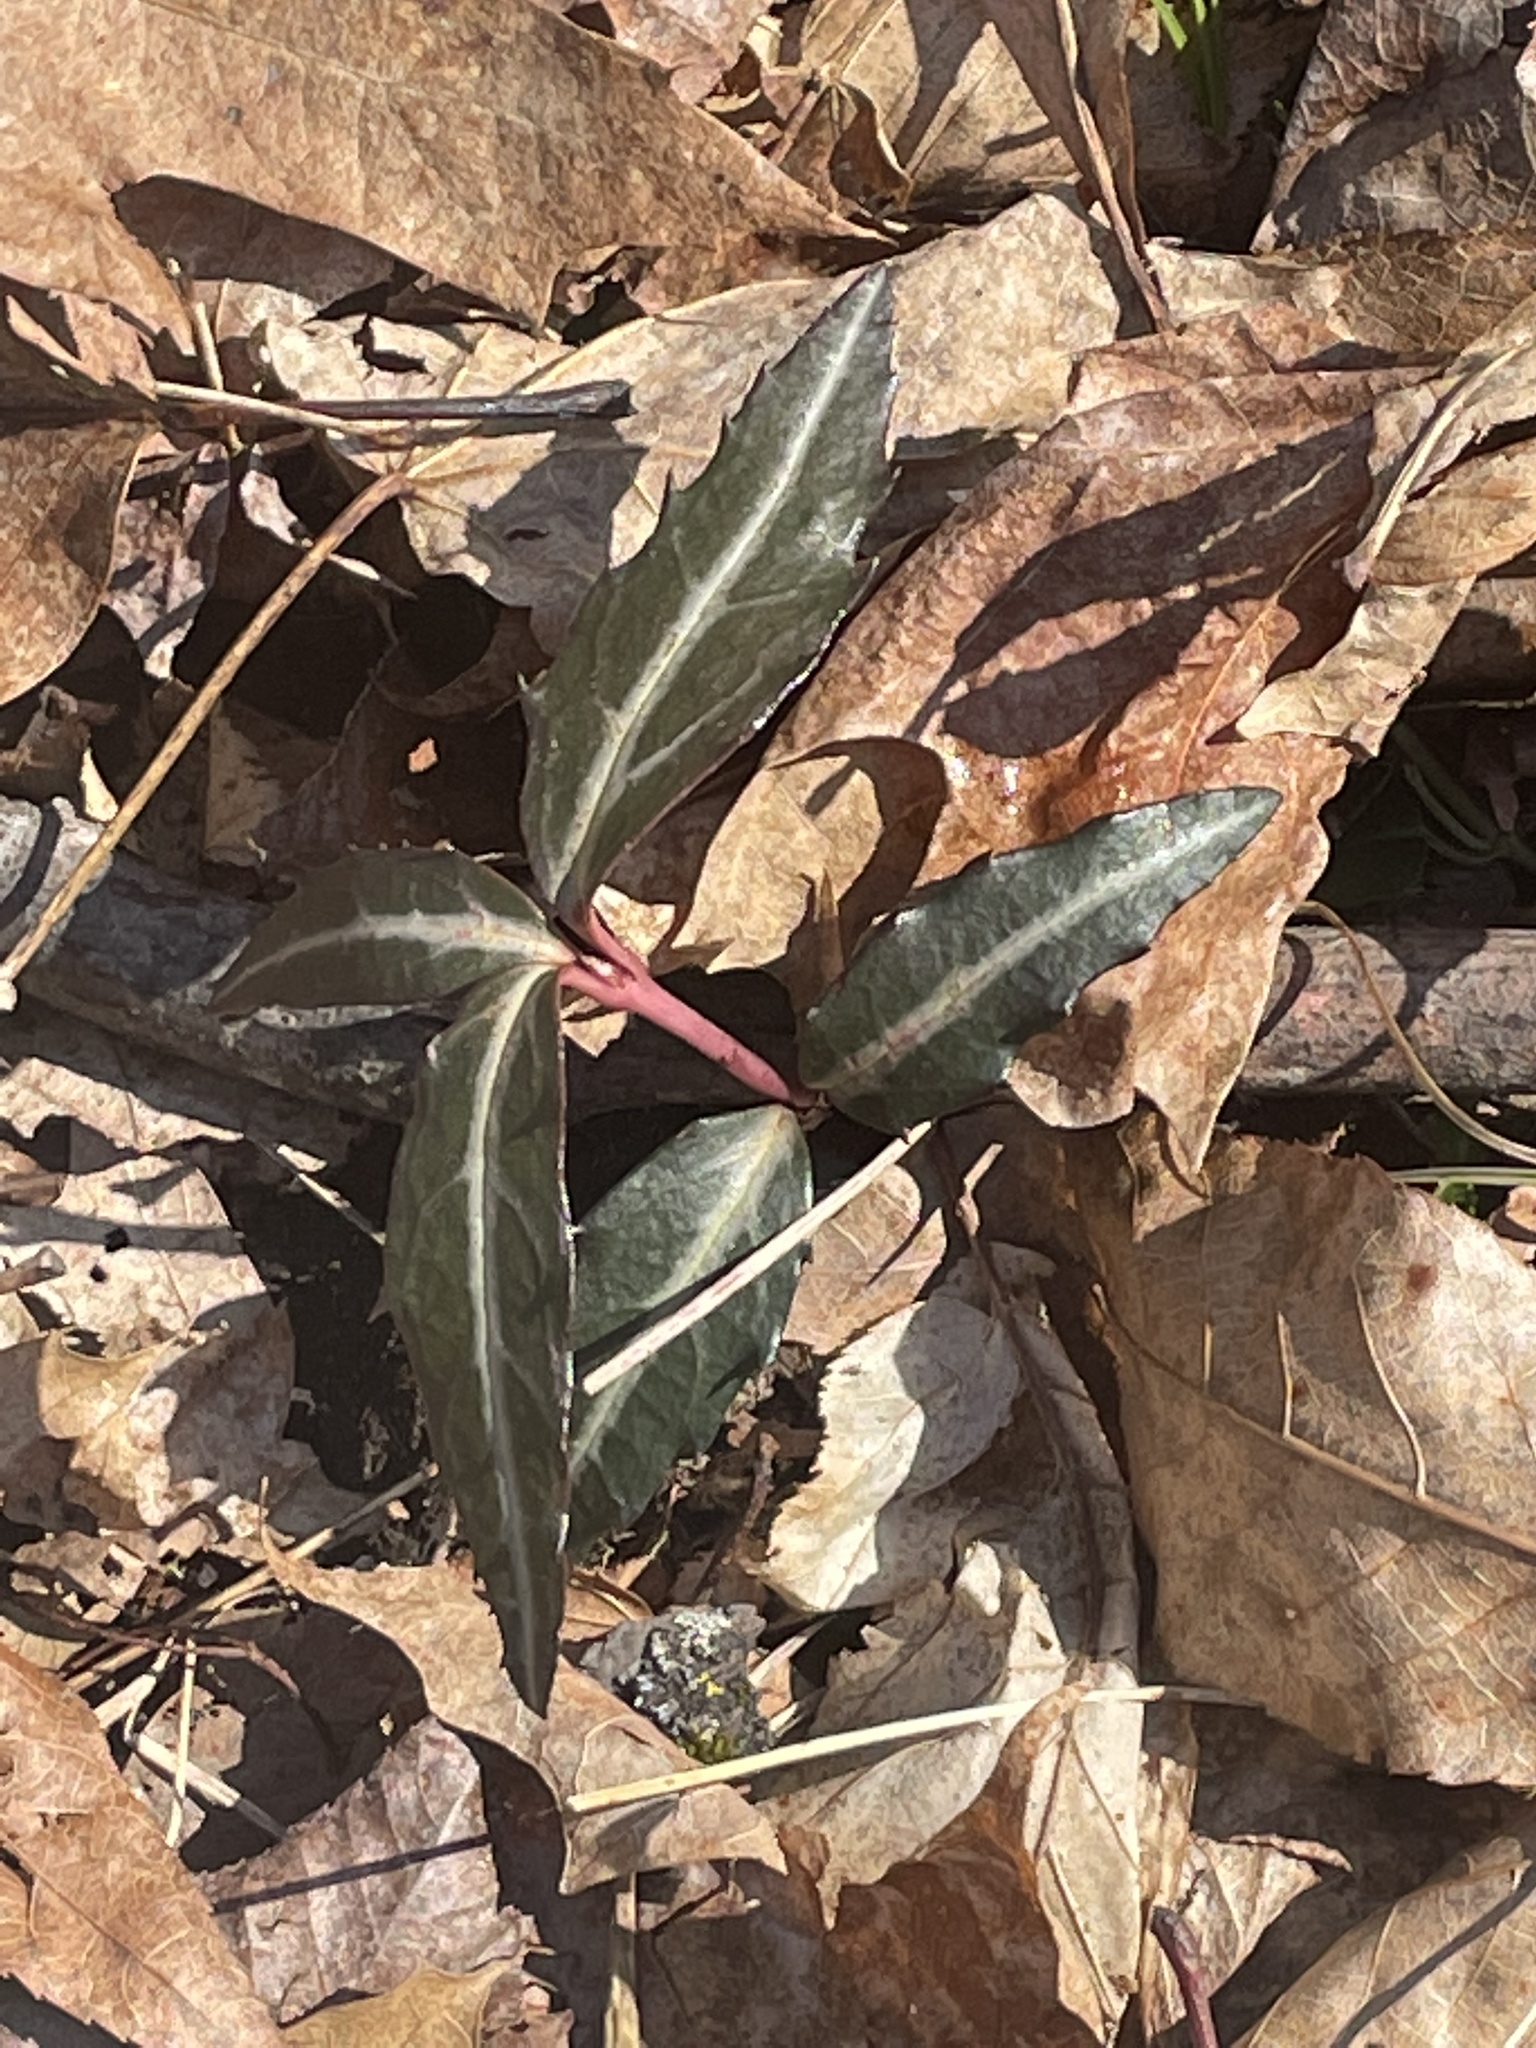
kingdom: Plantae
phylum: Tracheophyta
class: Magnoliopsida
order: Ericales
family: Ericaceae
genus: Chimaphila
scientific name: Chimaphila maculata
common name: Spotted pipsissewa
